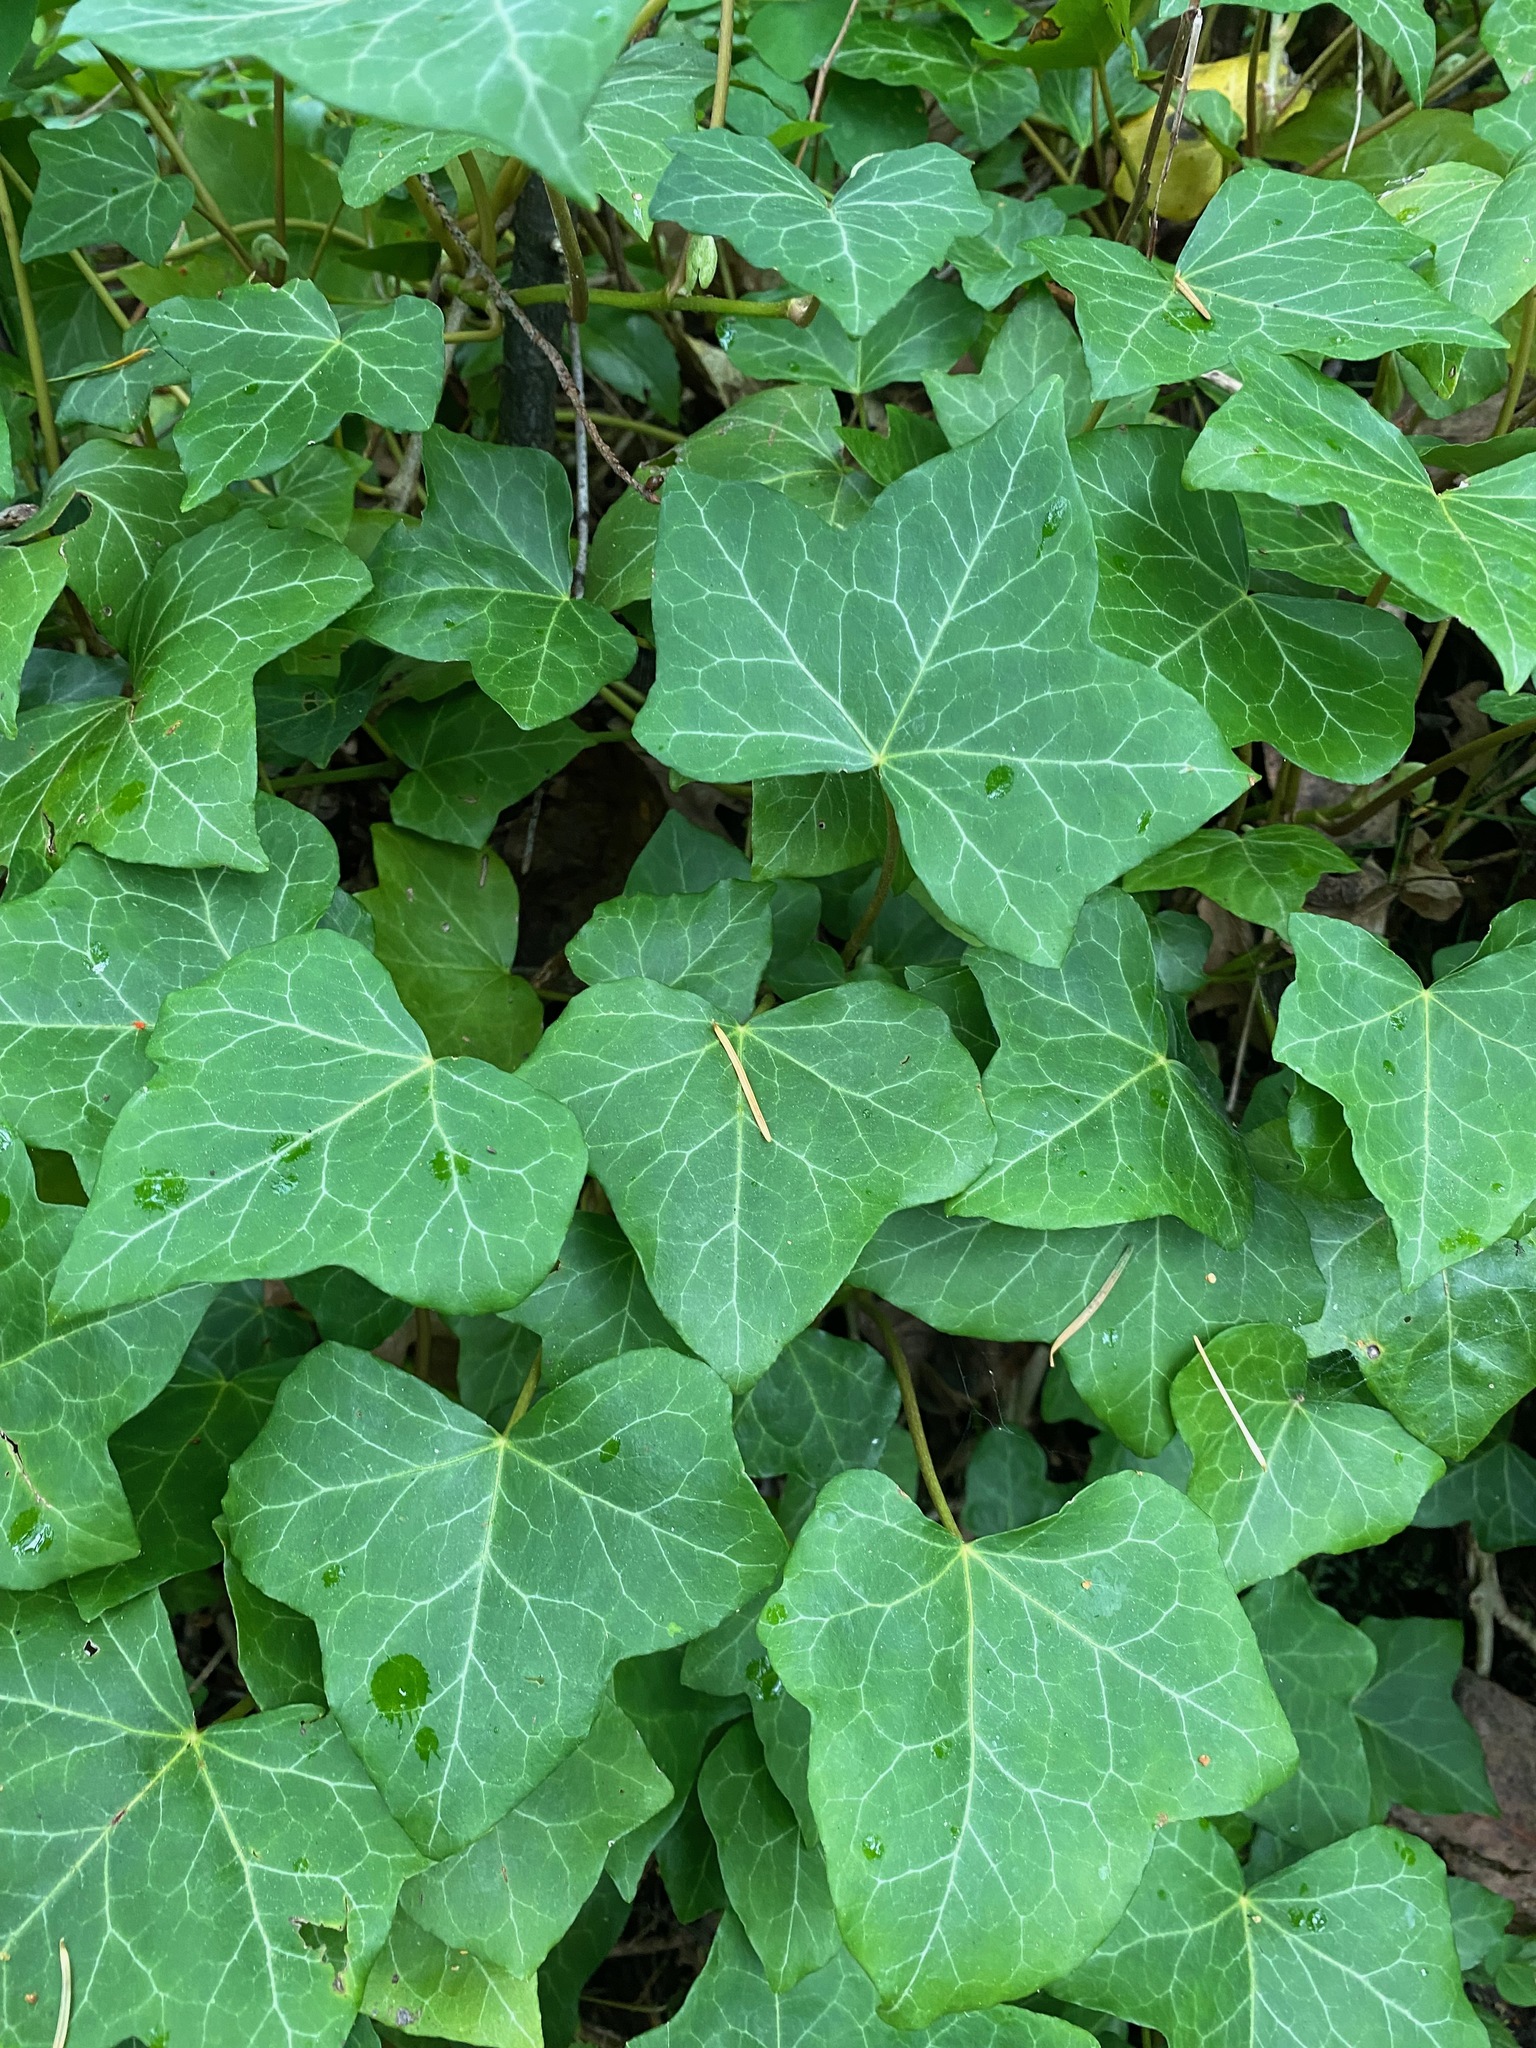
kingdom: Plantae
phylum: Tracheophyta
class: Magnoliopsida
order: Apiales
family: Araliaceae
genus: Hedera
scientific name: Hedera helix
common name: Ivy
